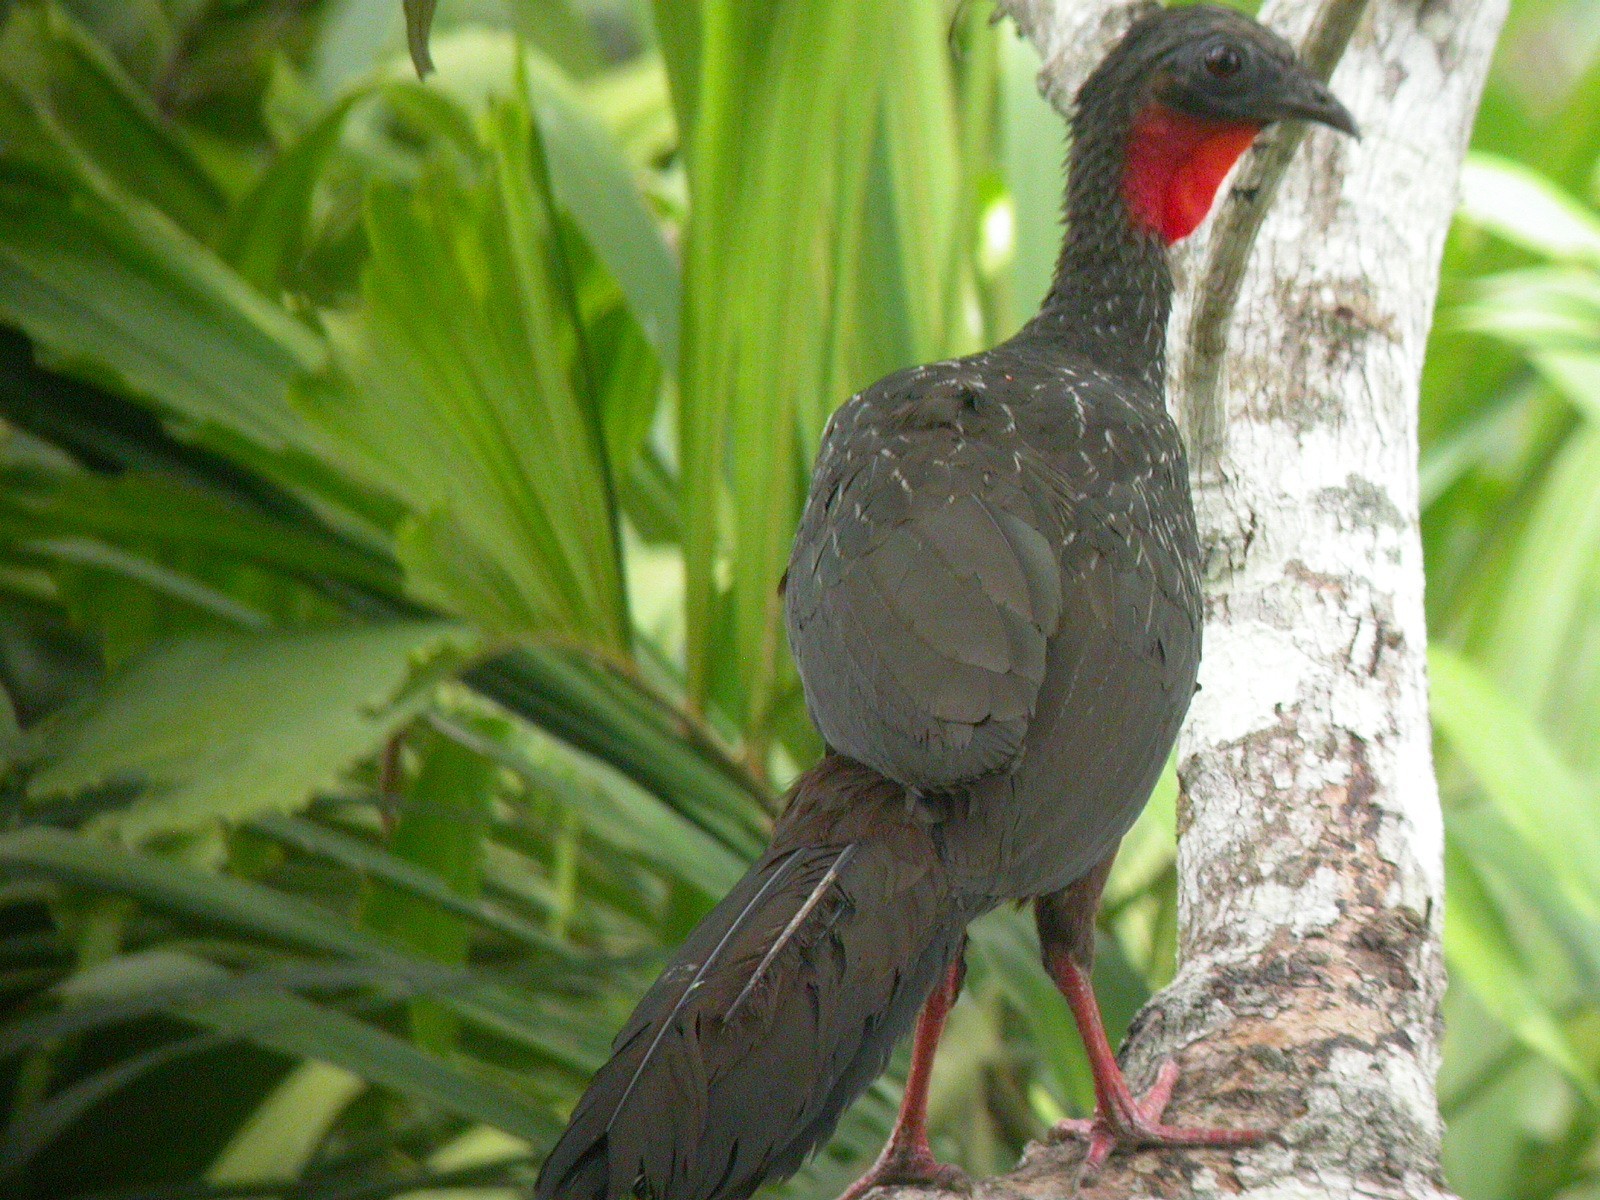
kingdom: Animalia
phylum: Chordata
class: Aves
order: Galliformes
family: Cracidae
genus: Penelope
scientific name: Penelope jacquacu
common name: Spix's guan
